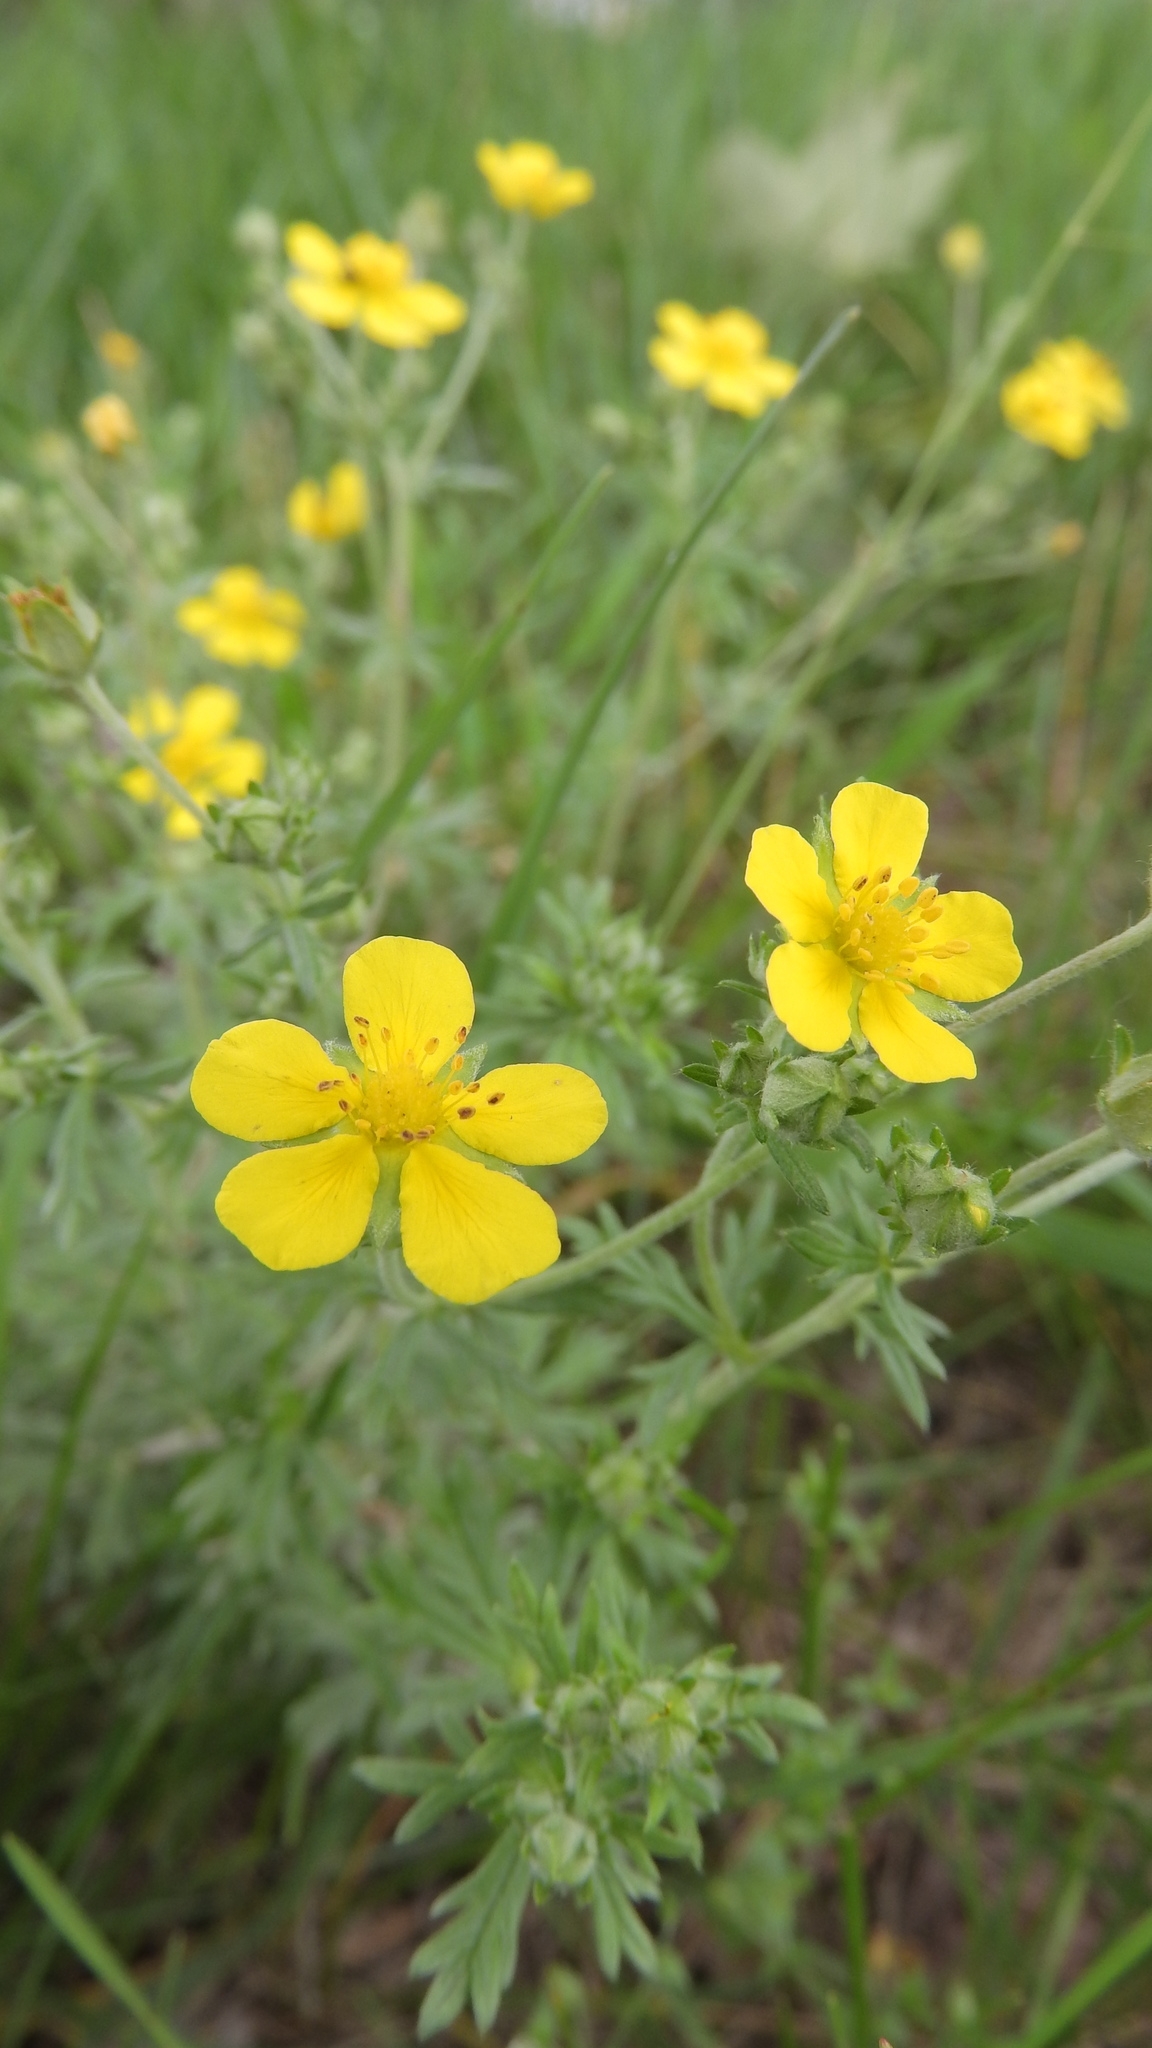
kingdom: Plantae
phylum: Tracheophyta
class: Magnoliopsida
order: Rosales
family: Rosaceae
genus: Potentilla
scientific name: Potentilla argentea
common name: Hoary cinquefoil
